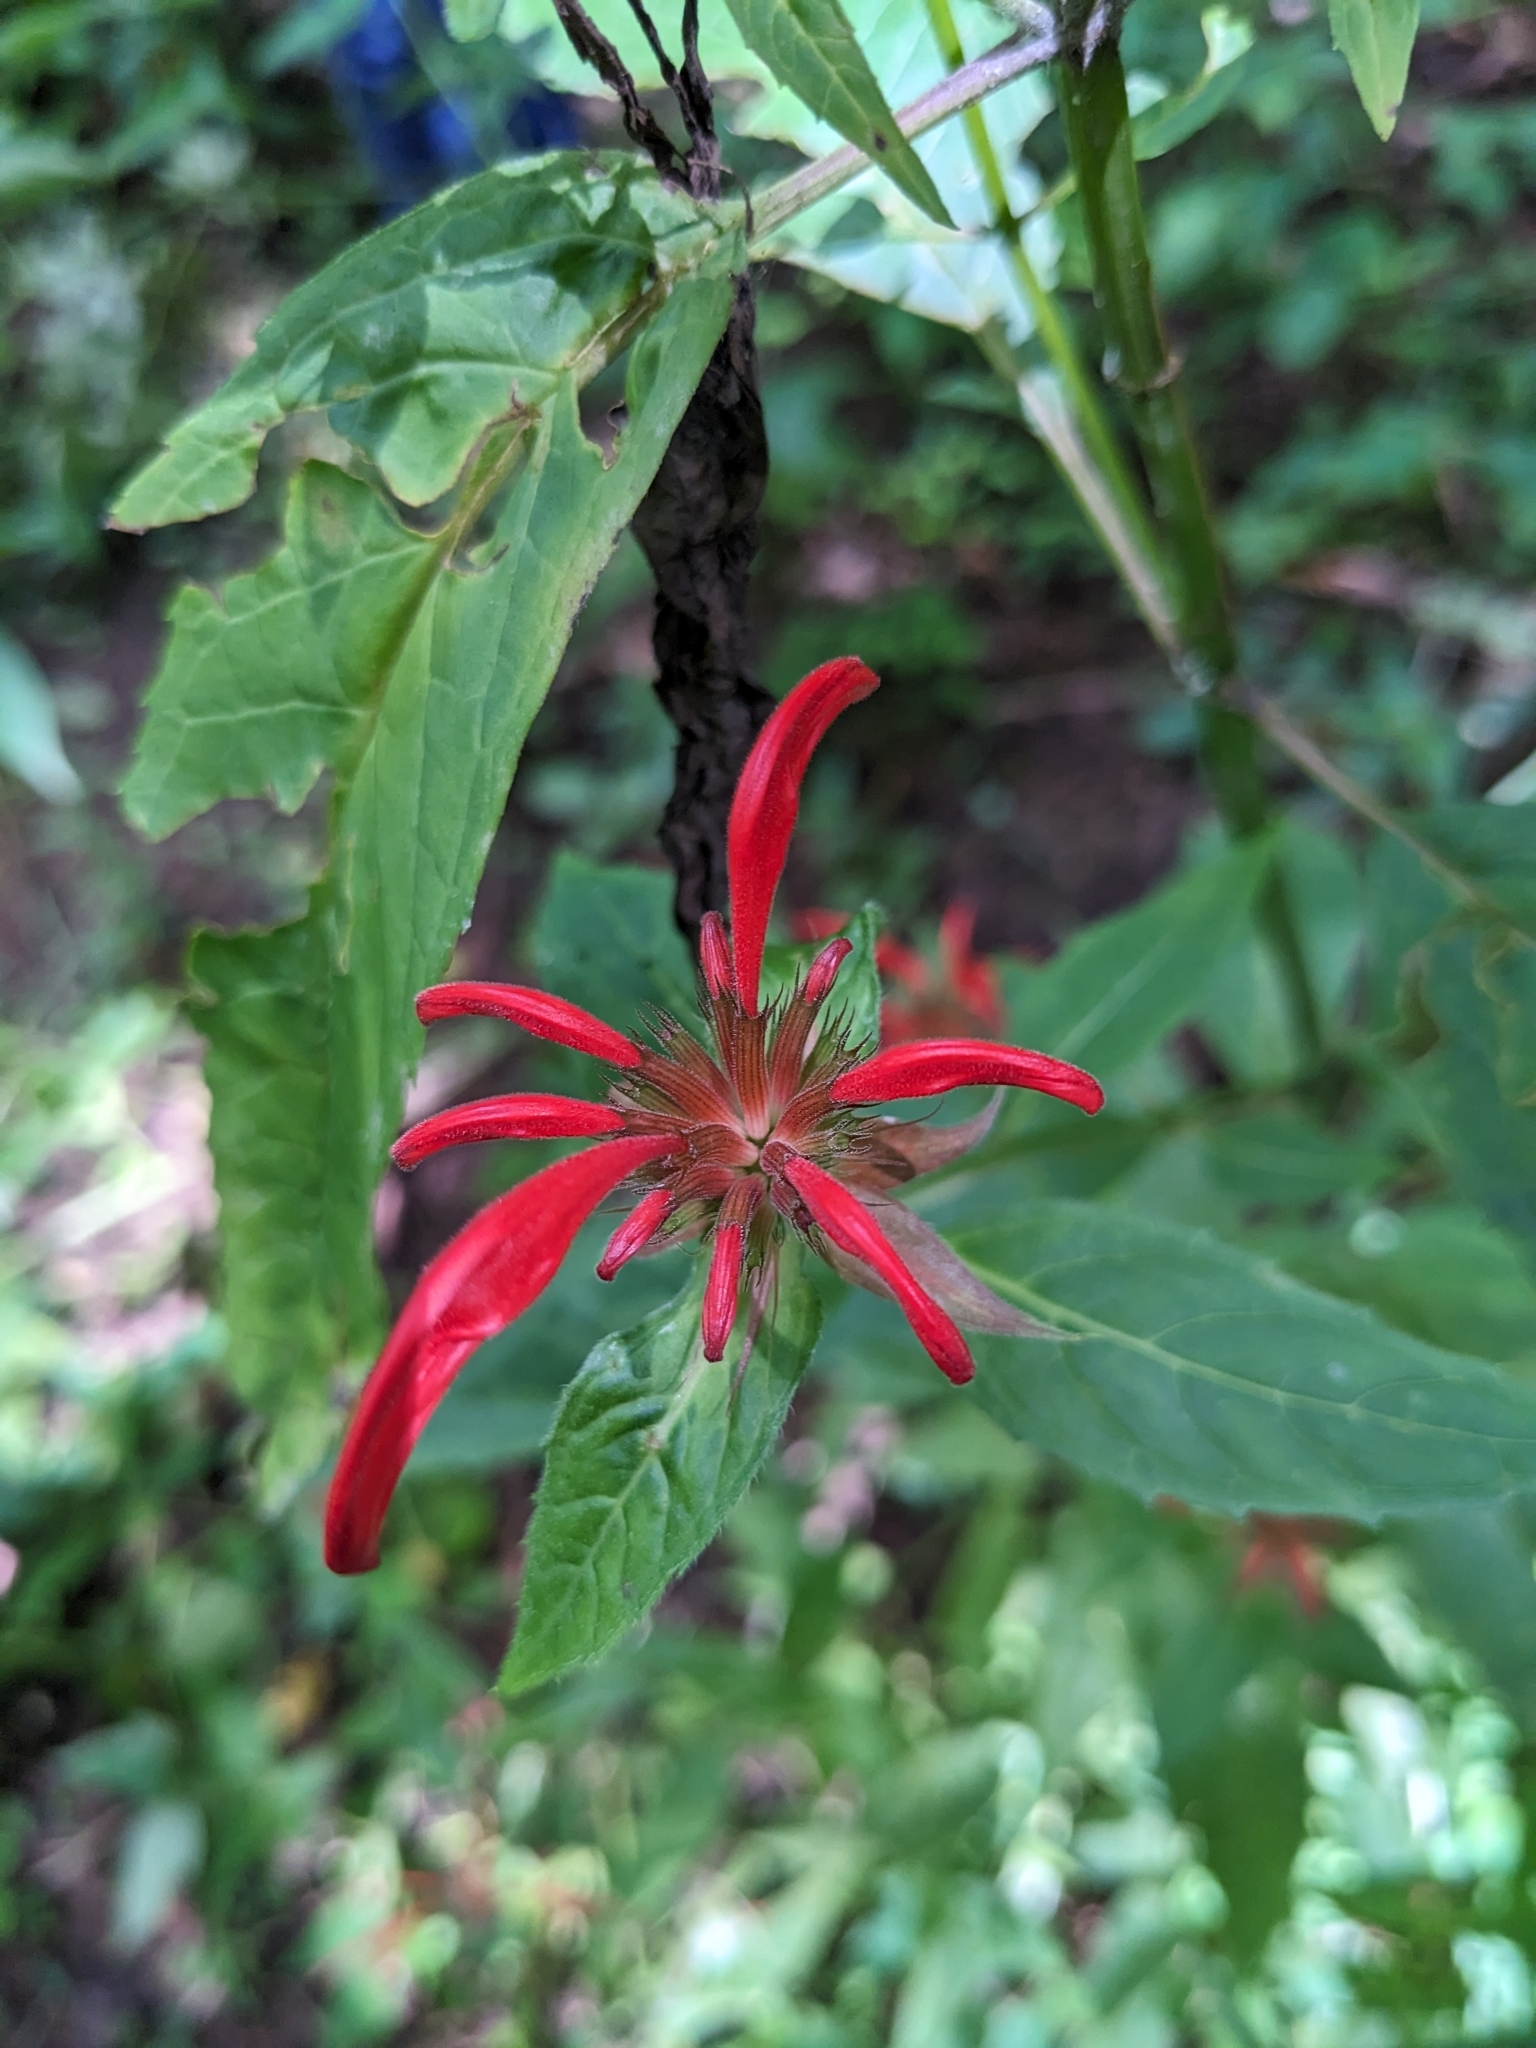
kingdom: Plantae
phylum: Tracheophyta
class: Magnoliopsida
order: Lamiales
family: Lamiaceae
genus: Monarda
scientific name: Monarda didyma
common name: Beebalm
